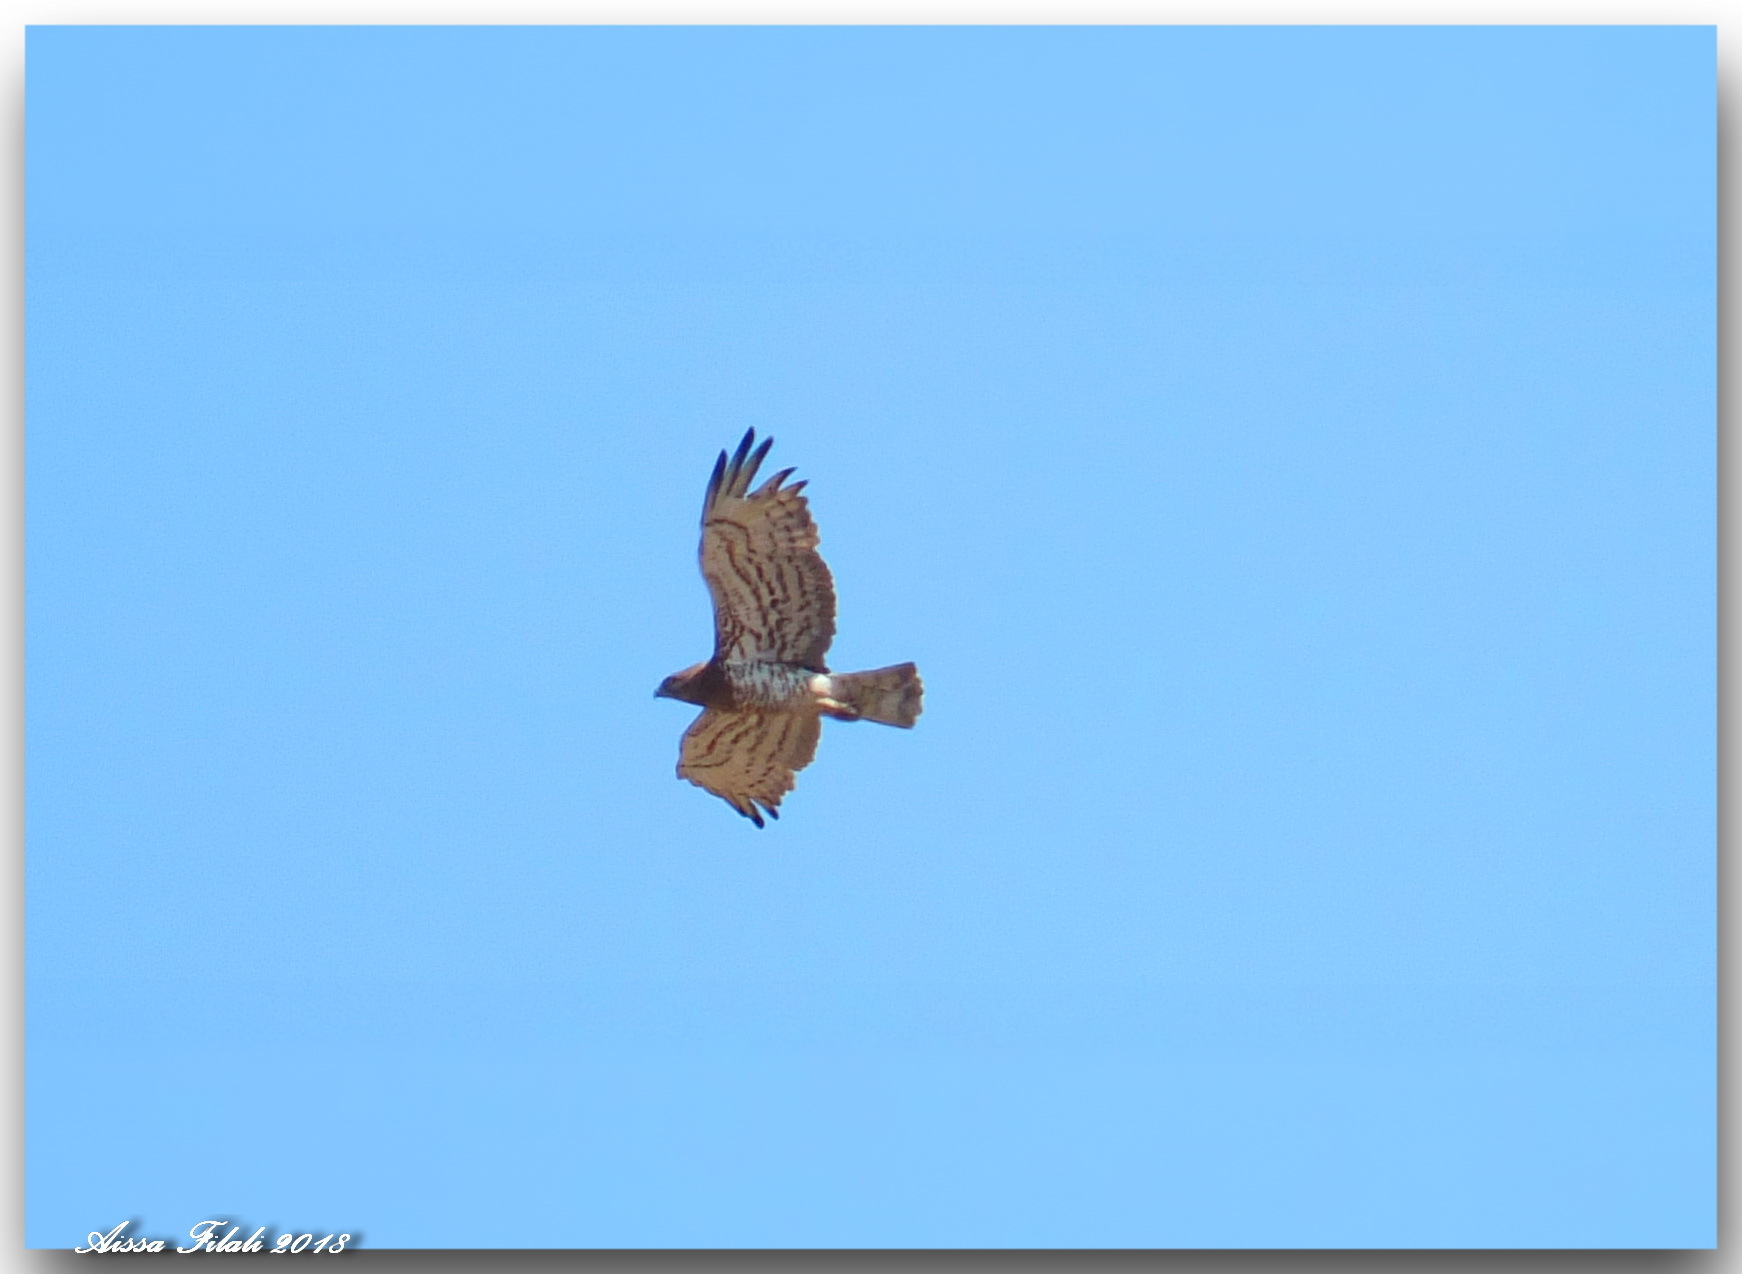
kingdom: Animalia
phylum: Chordata
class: Aves
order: Accipitriformes
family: Accipitridae
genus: Circaetus
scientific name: Circaetus gallicus
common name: Short-toed snake eagle
